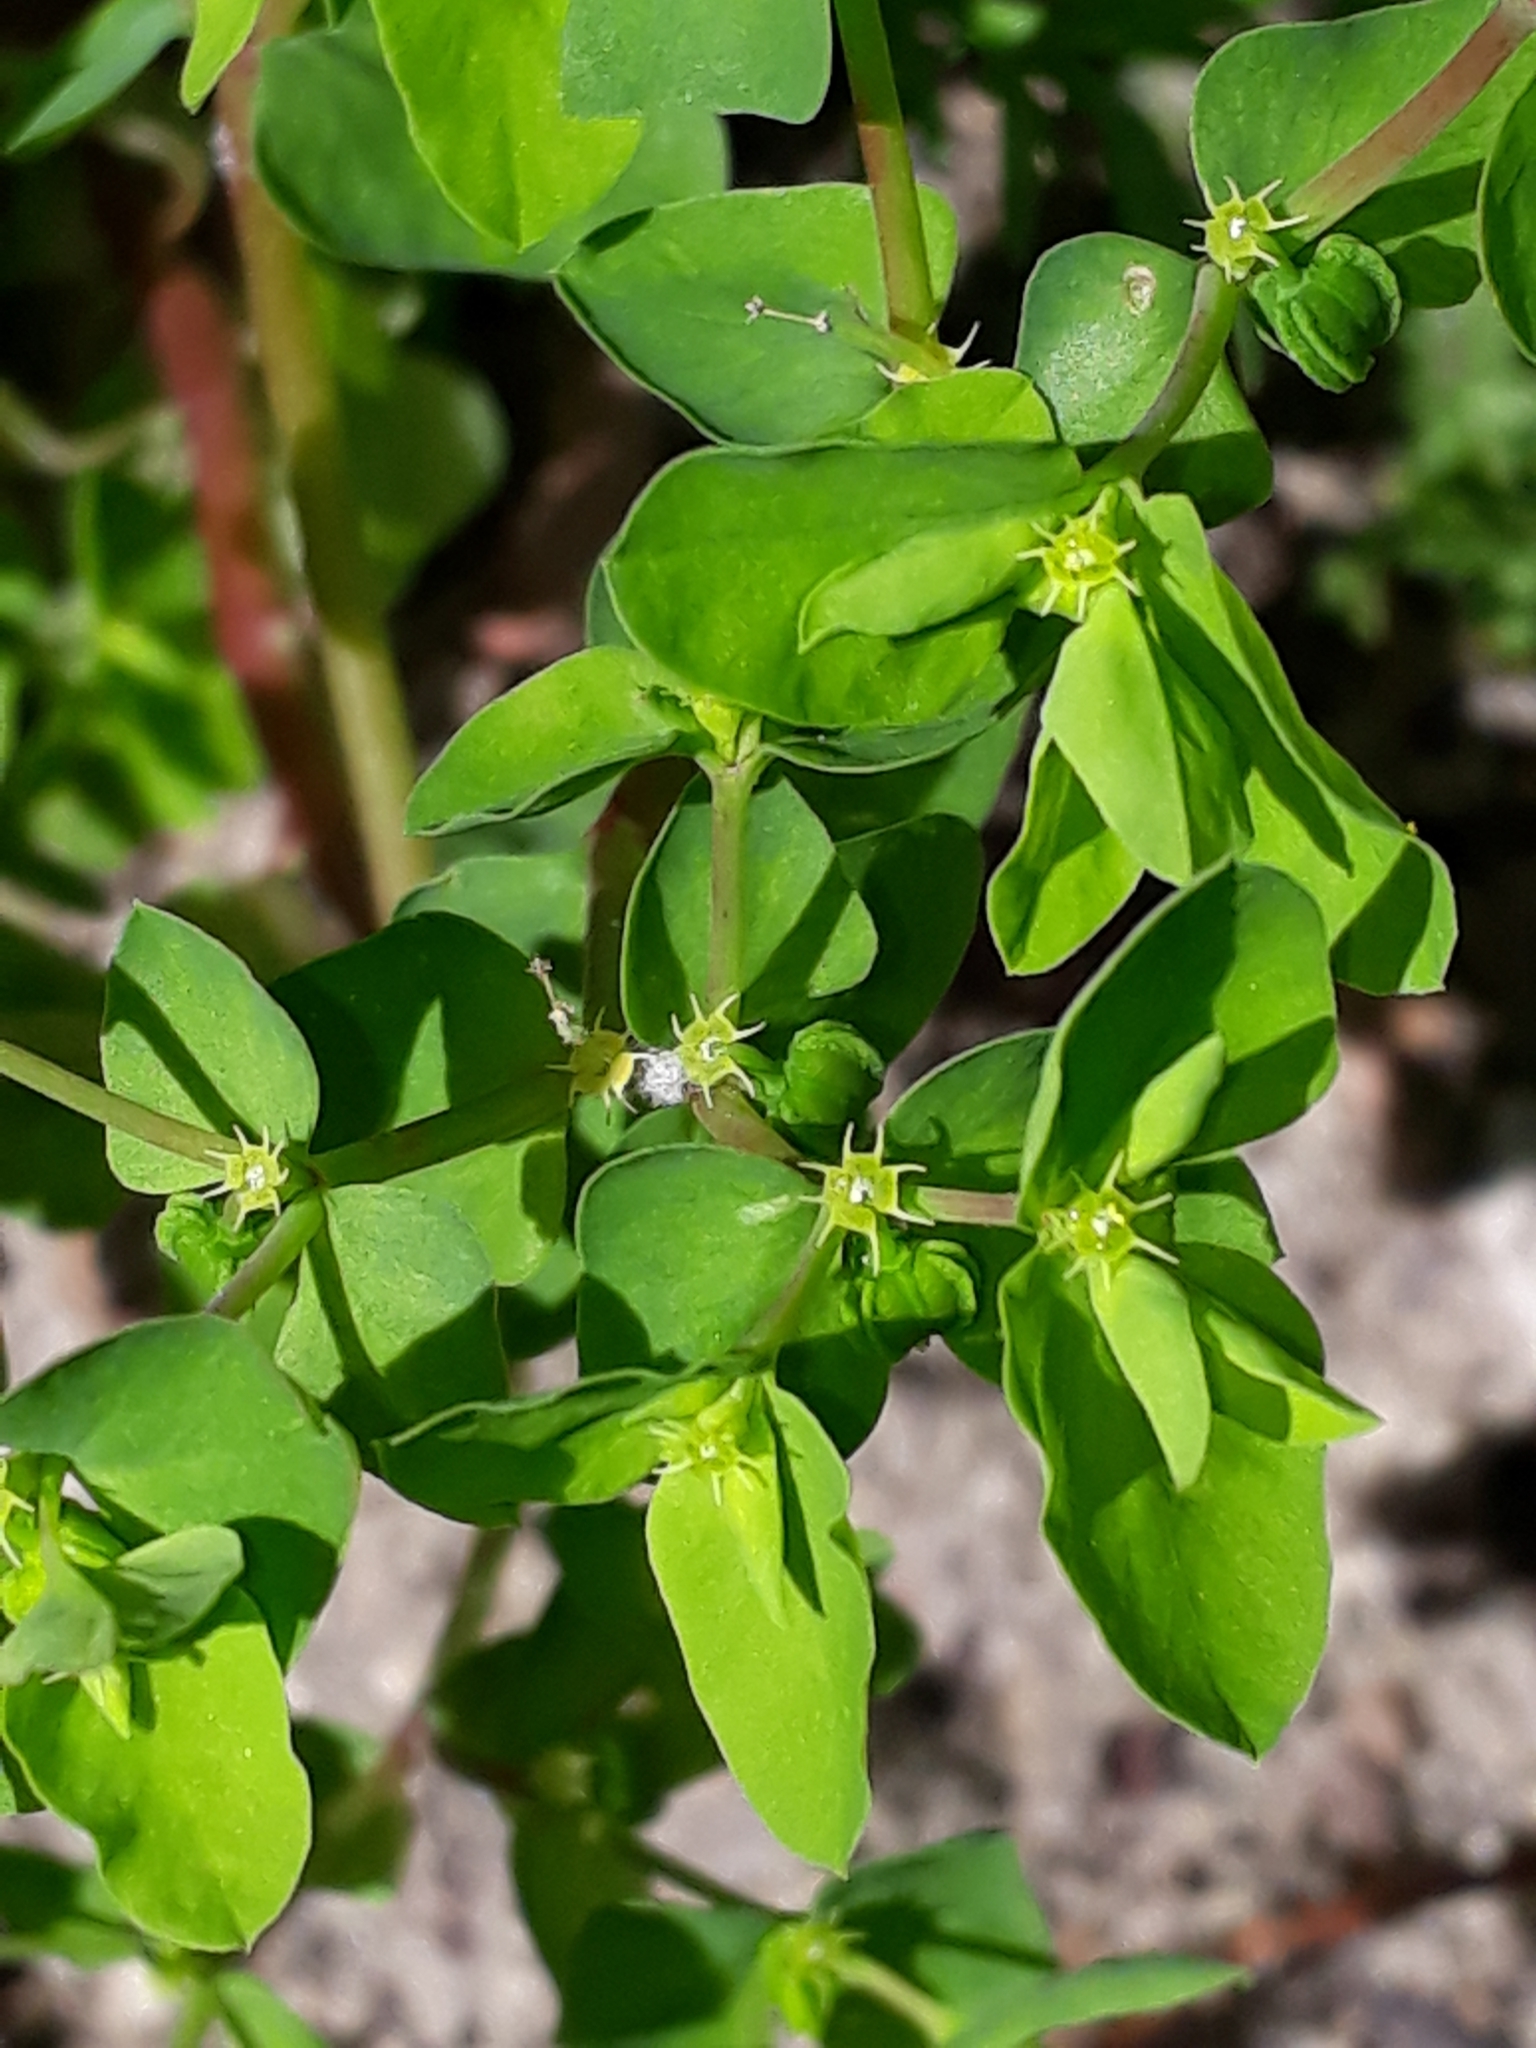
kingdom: Plantae
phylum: Tracheophyta
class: Magnoliopsida
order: Malpighiales
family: Euphorbiaceae
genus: Euphorbia
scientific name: Euphorbia peplus
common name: Petty spurge
